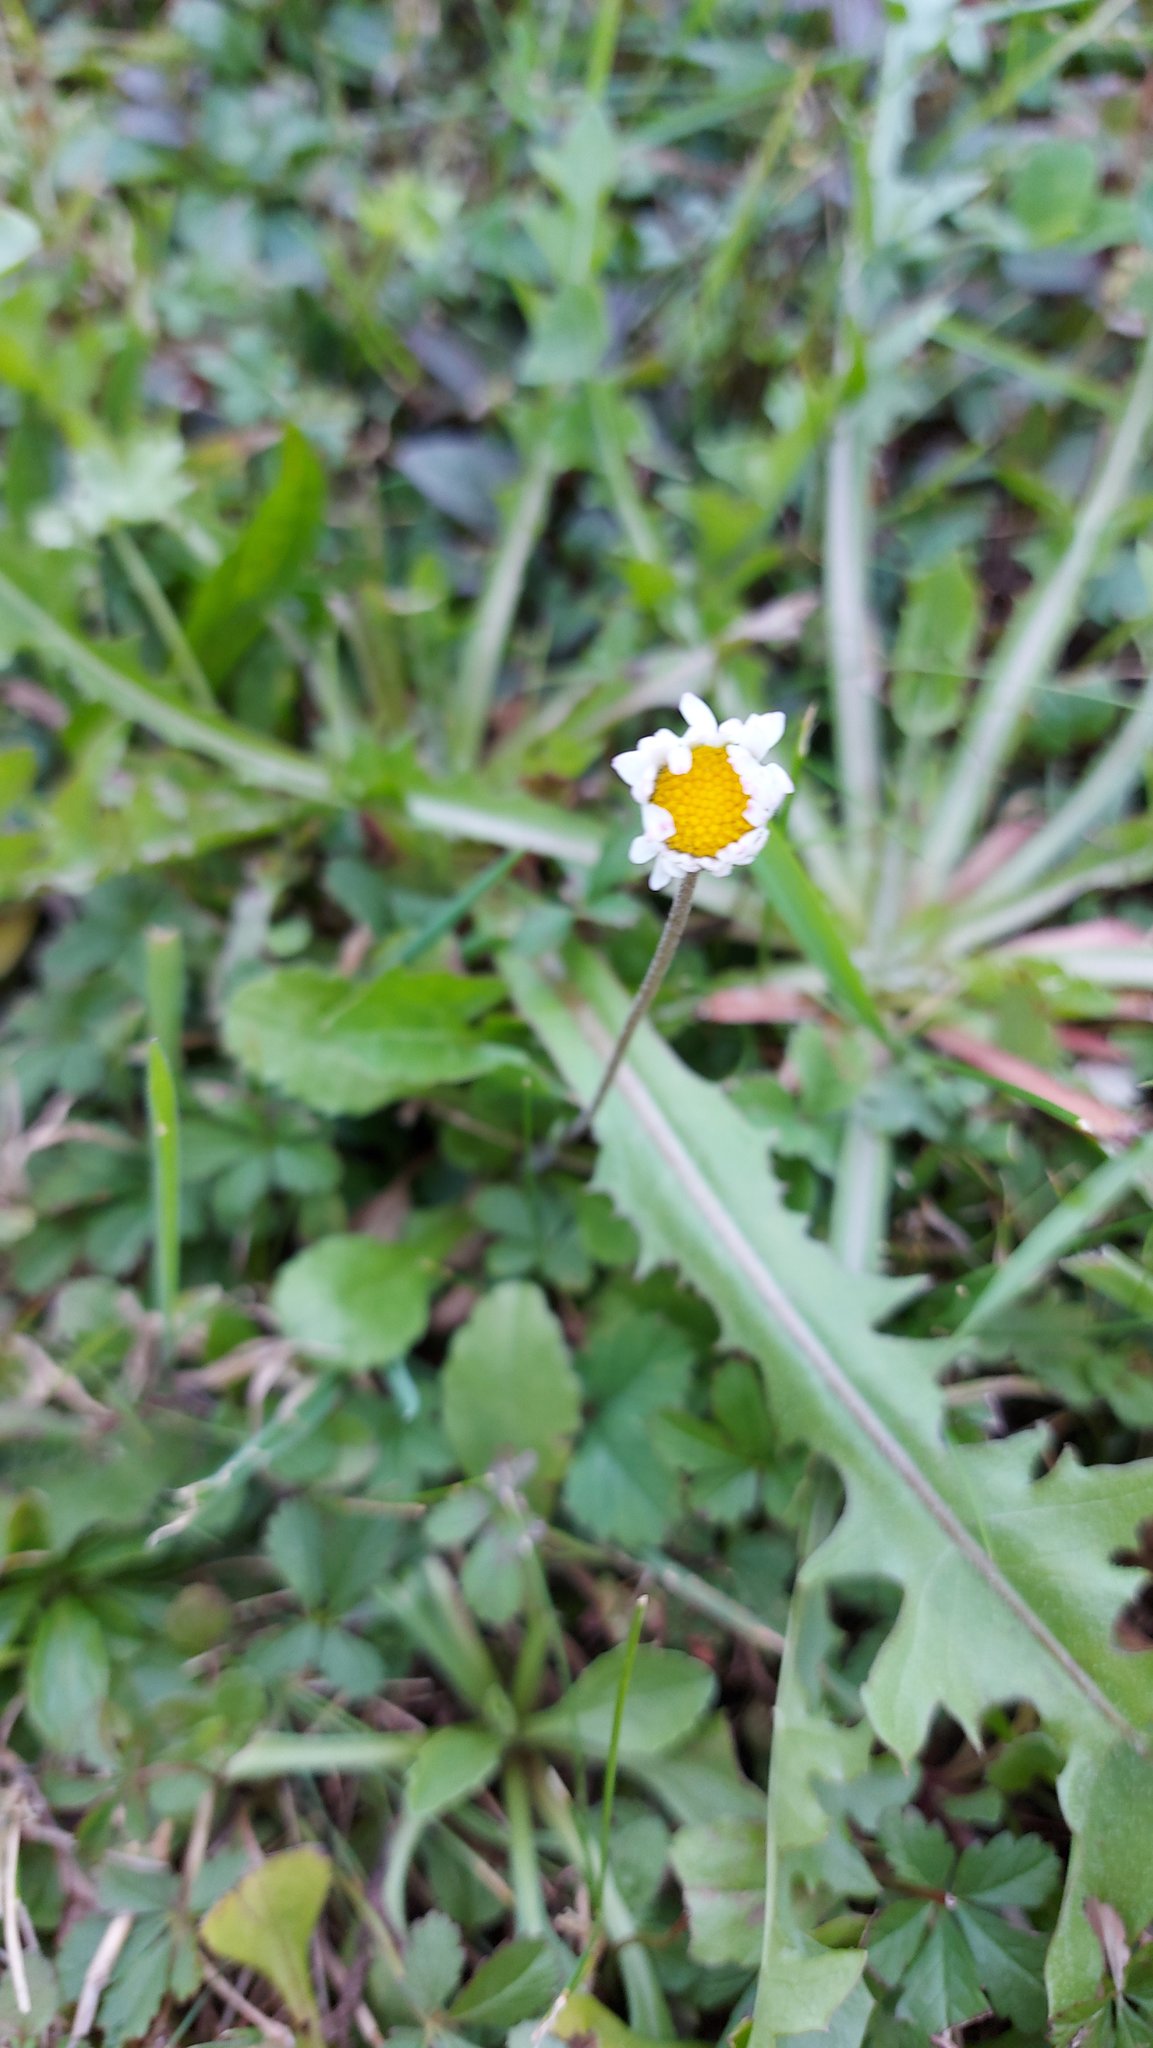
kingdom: Plantae
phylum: Tracheophyta
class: Magnoliopsida
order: Asterales
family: Asteraceae
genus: Bellis
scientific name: Bellis perennis
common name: Lawndaisy
